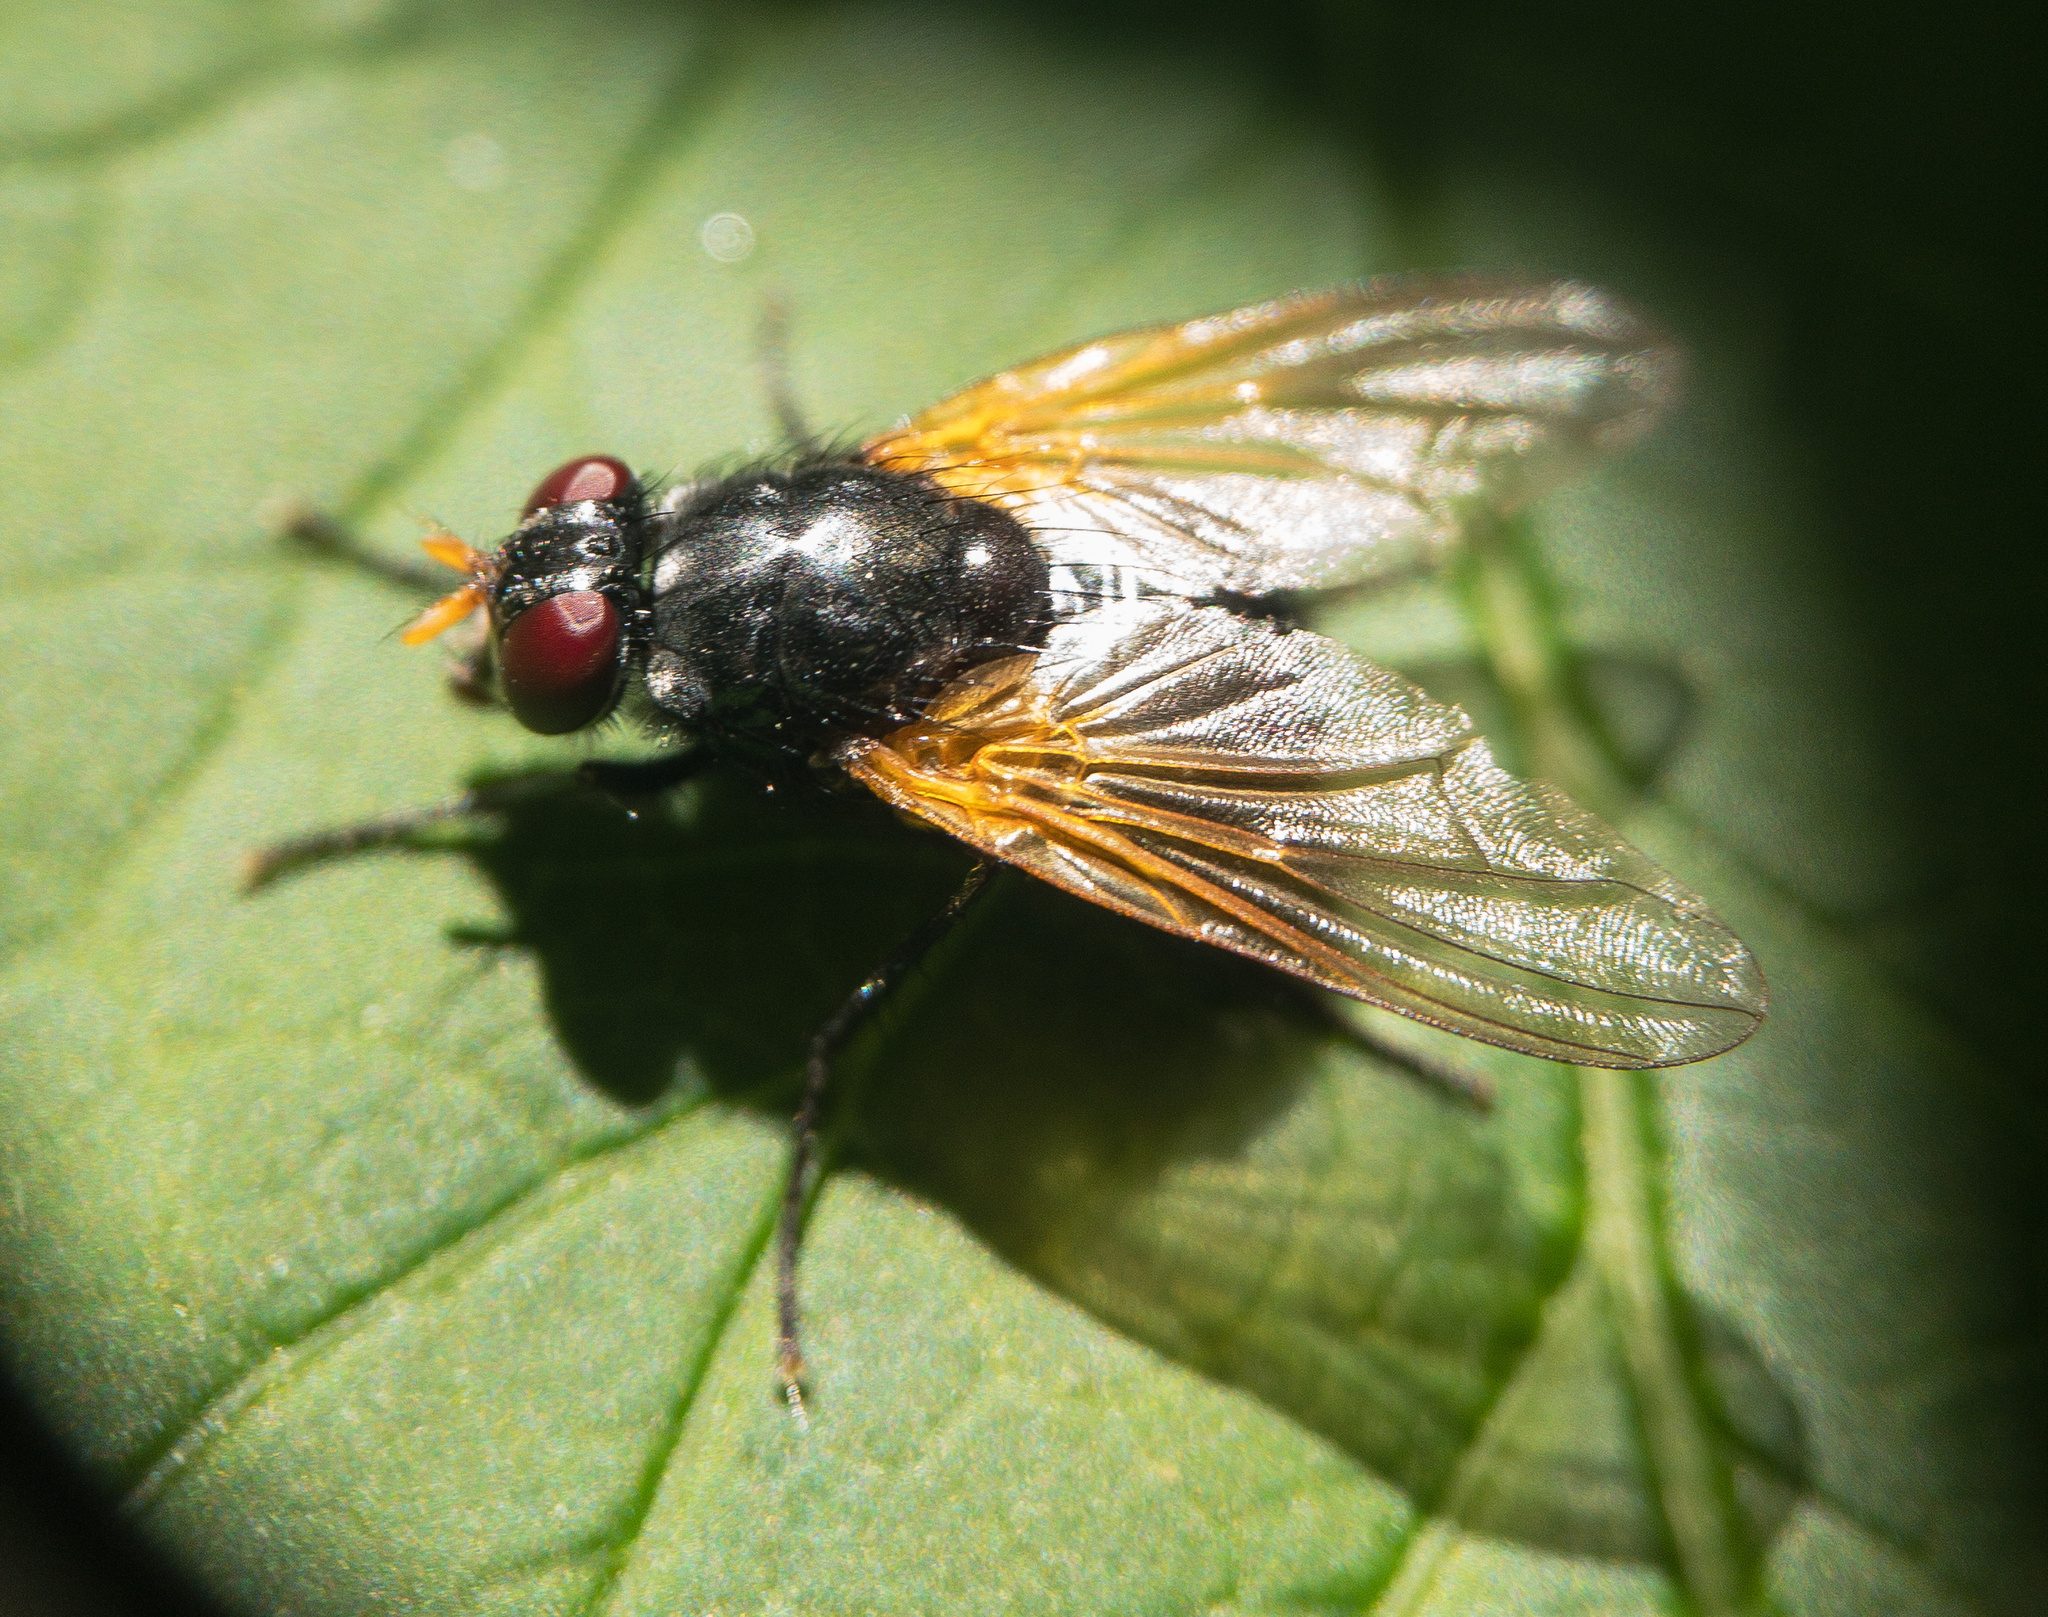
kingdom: Animalia
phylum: Arthropoda
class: Insecta
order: Diptera
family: Muscidae
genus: Mesembrina
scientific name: Mesembrina latreillii
